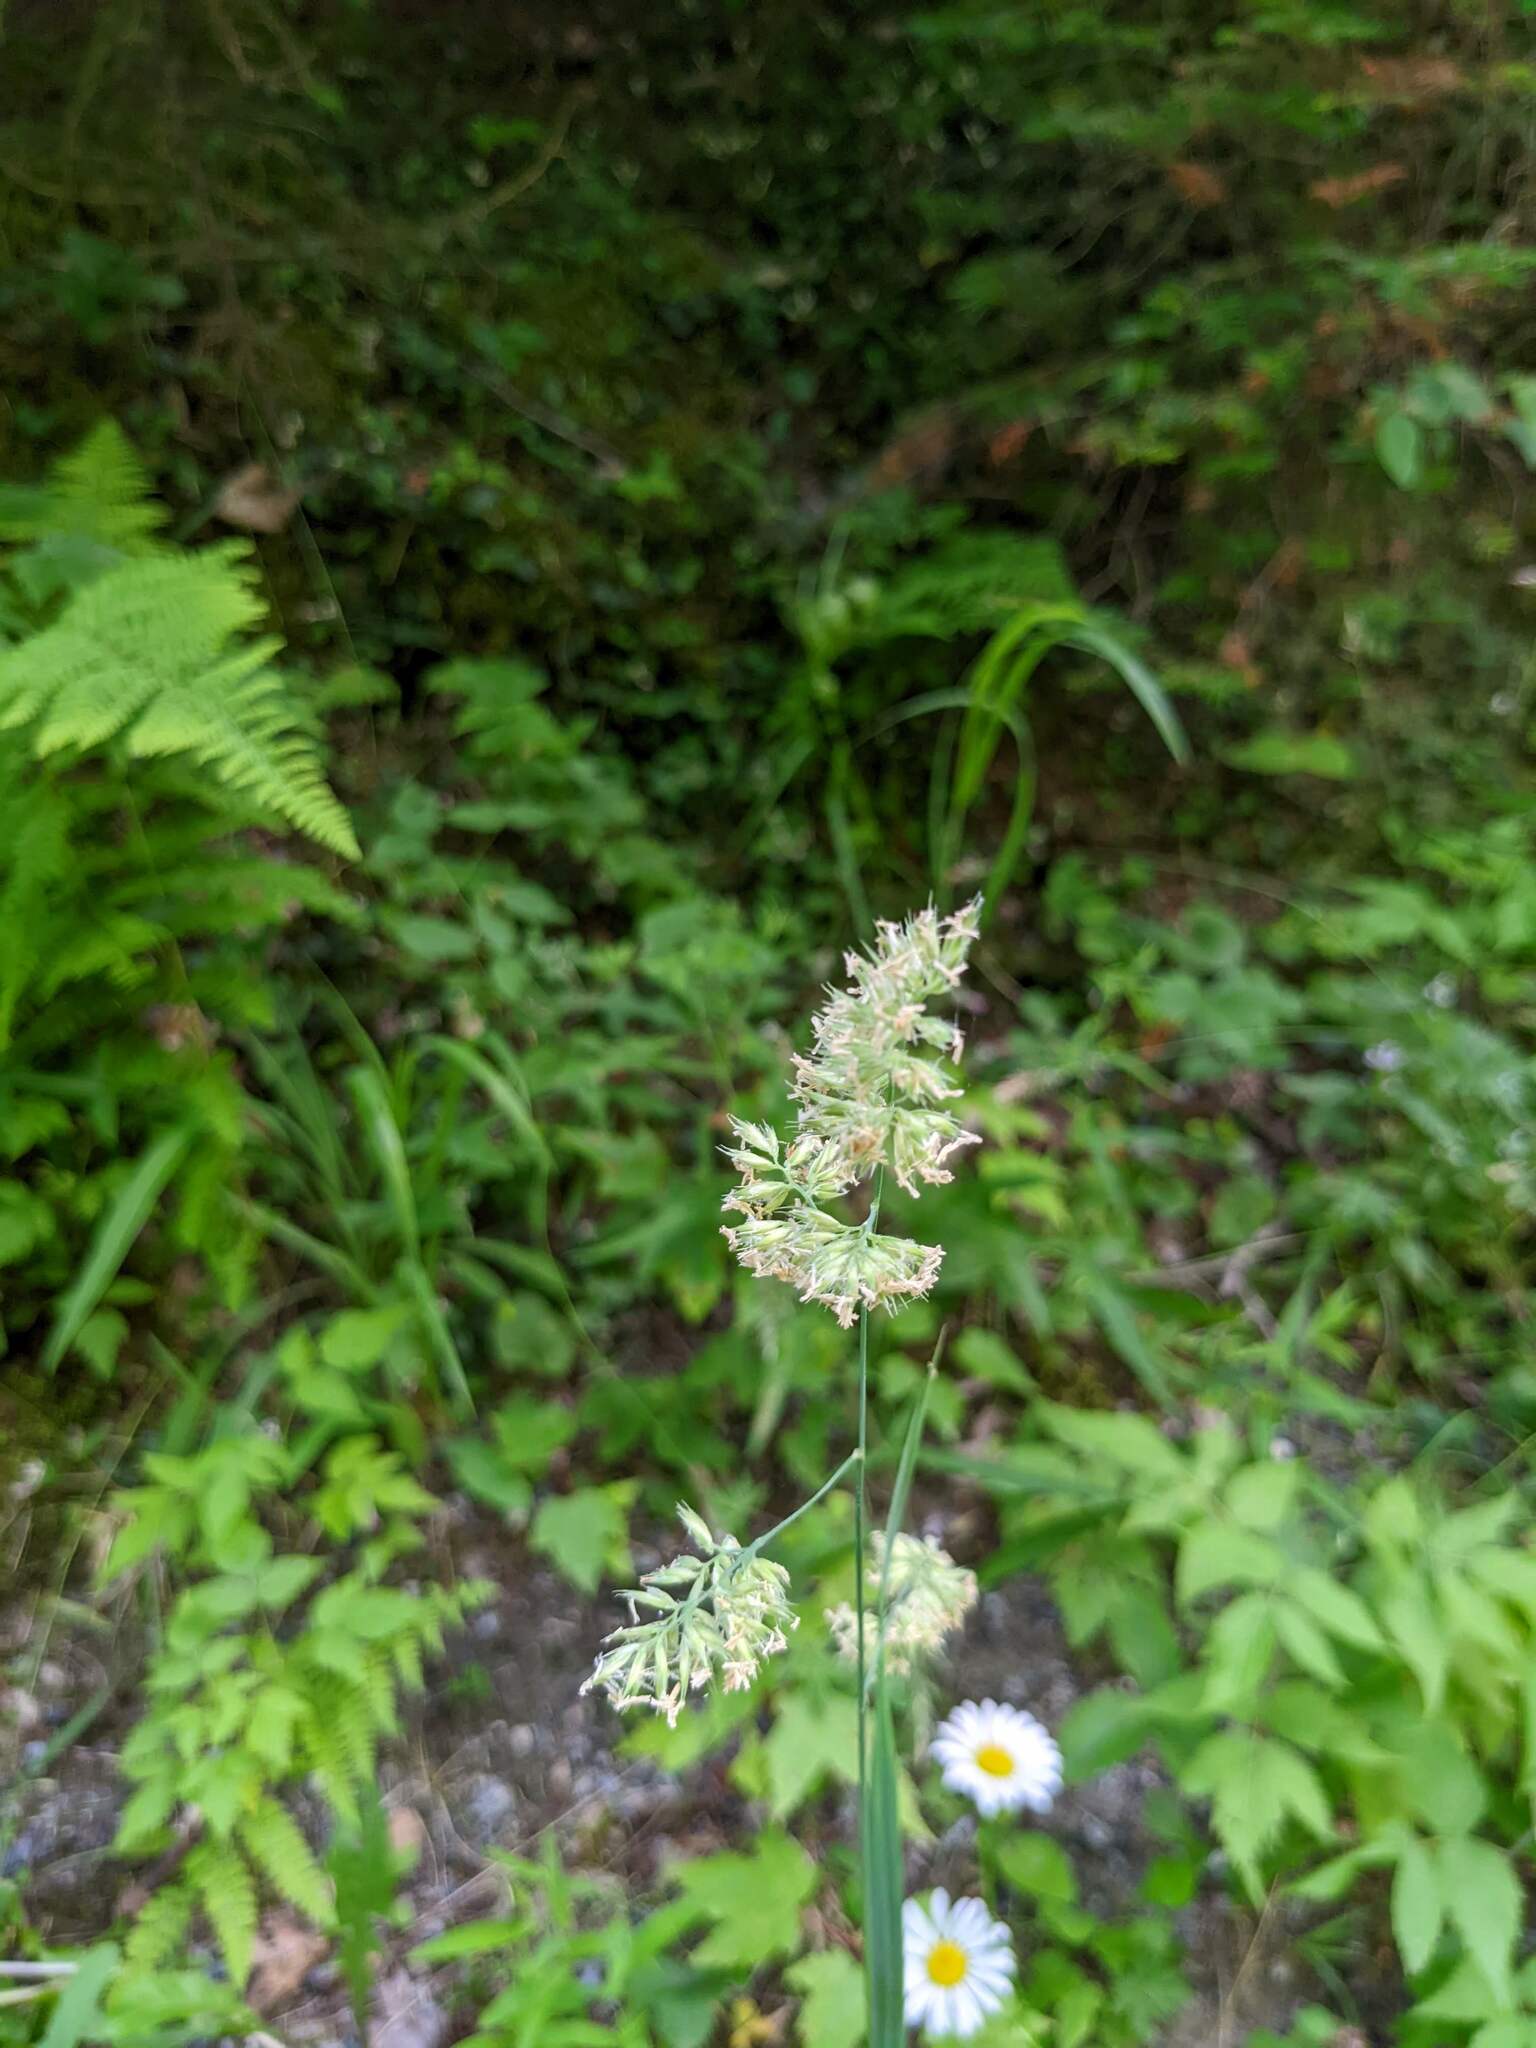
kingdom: Plantae
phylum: Tracheophyta
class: Liliopsida
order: Poales
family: Poaceae
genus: Dactylis
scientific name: Dactylis glomerata
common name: Orchardgrass
